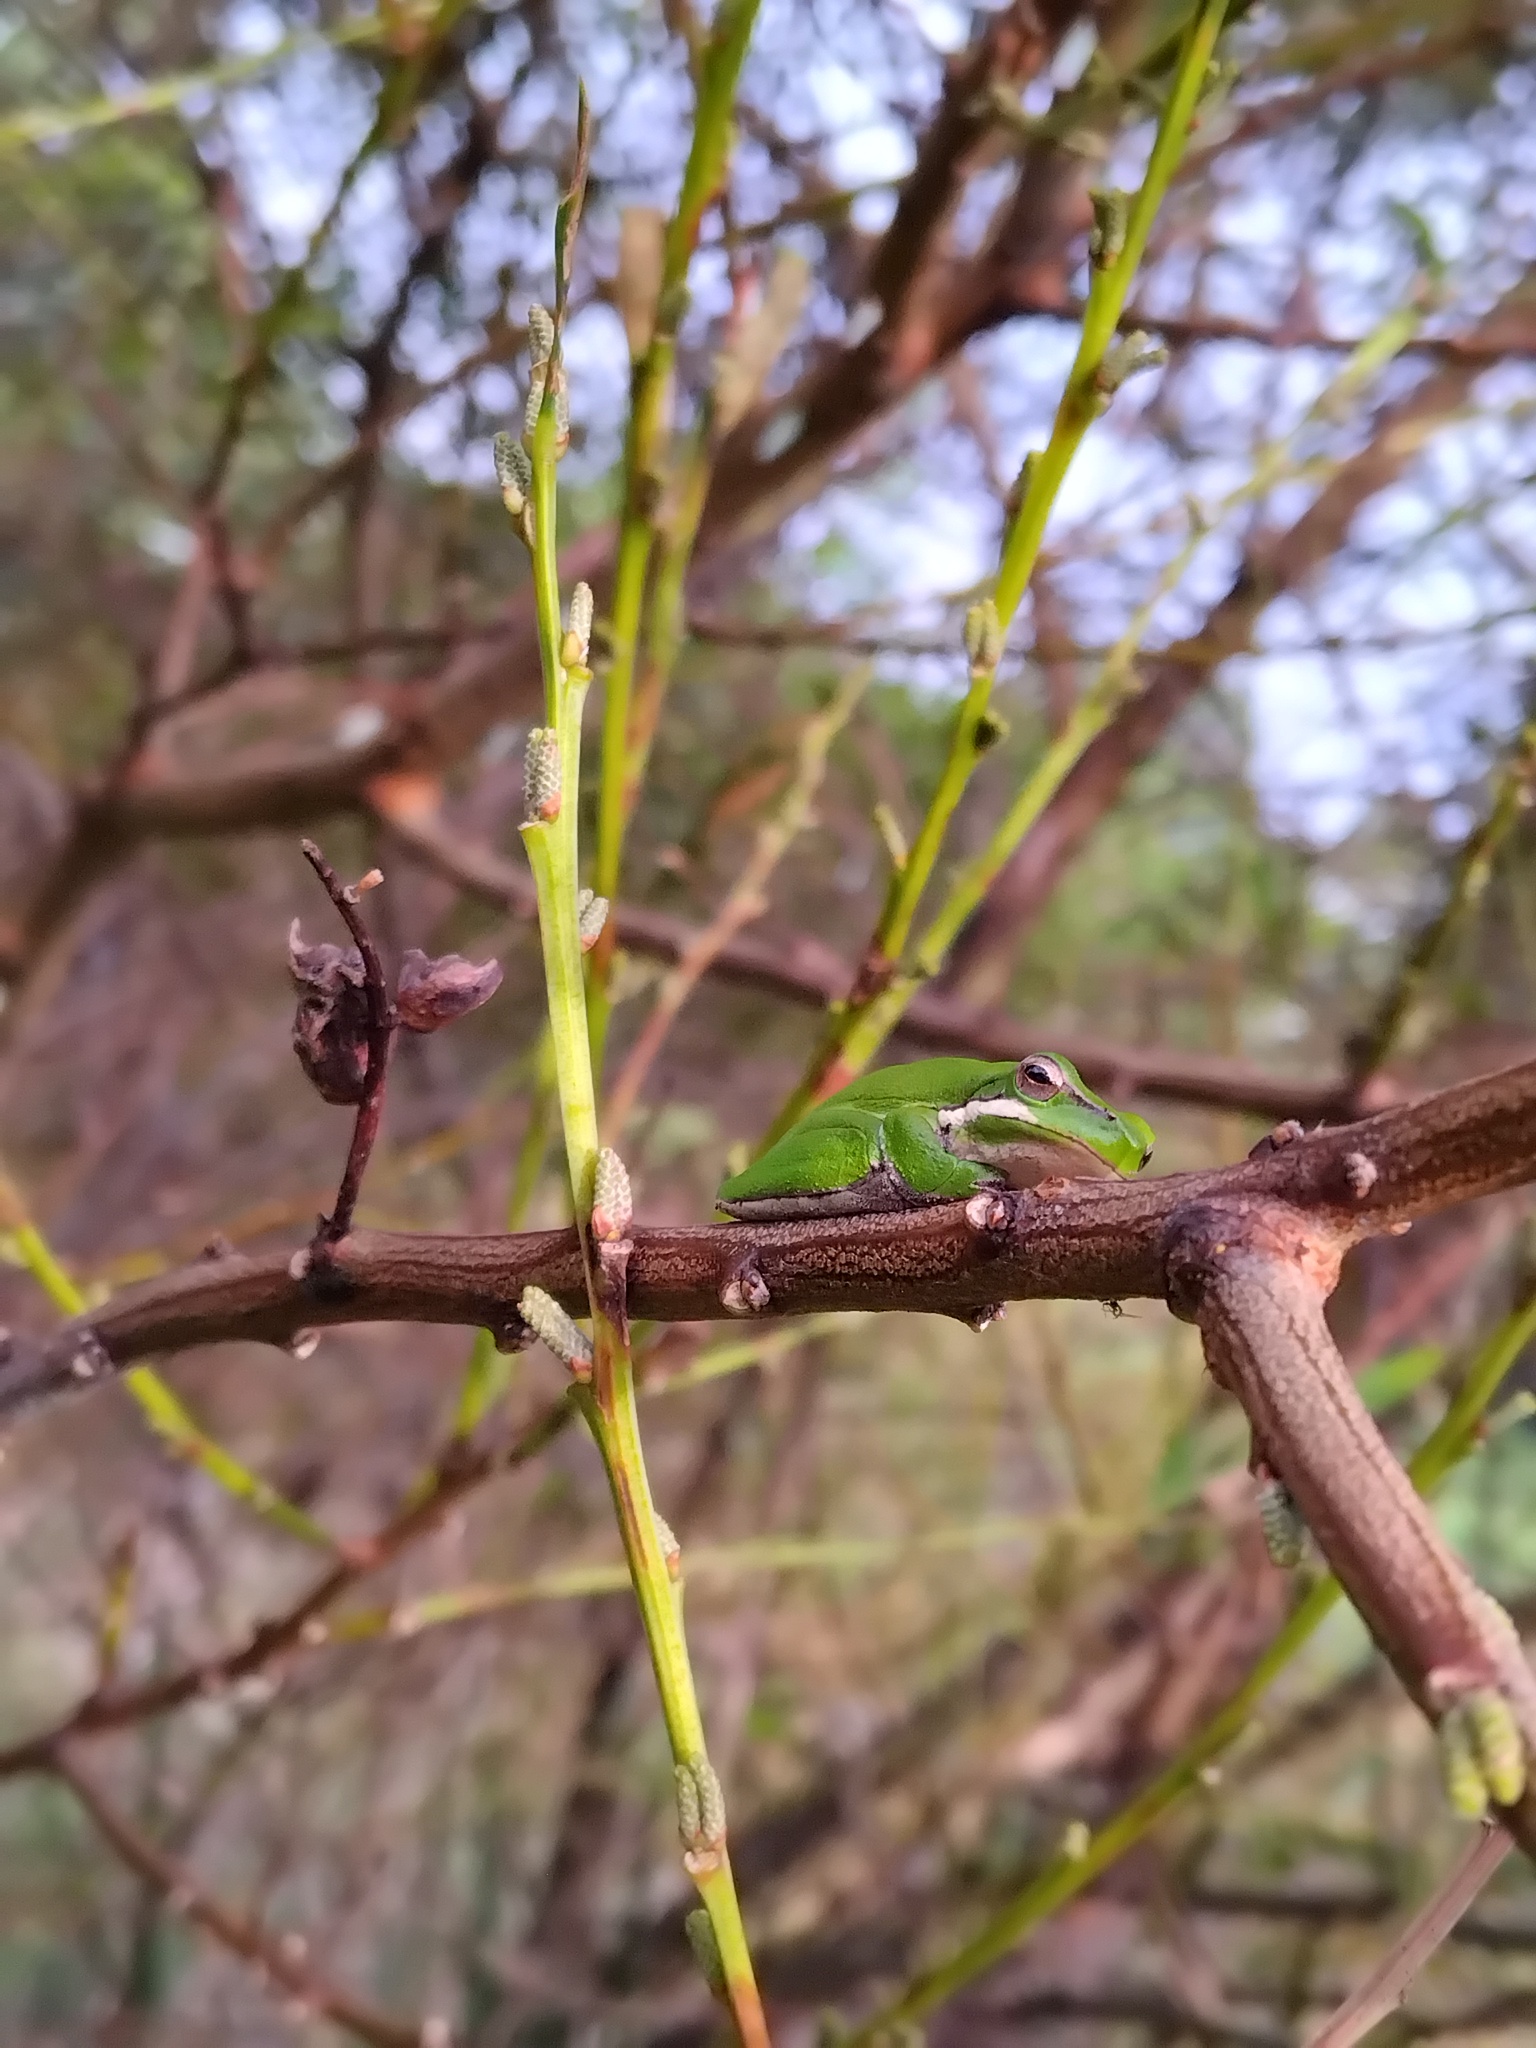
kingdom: Animalia
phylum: Chordata
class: Amphibia
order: Anura
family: Pelodryadidae
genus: Litoria
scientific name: Litoria fallax
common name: Eastern dwarf treefrog
